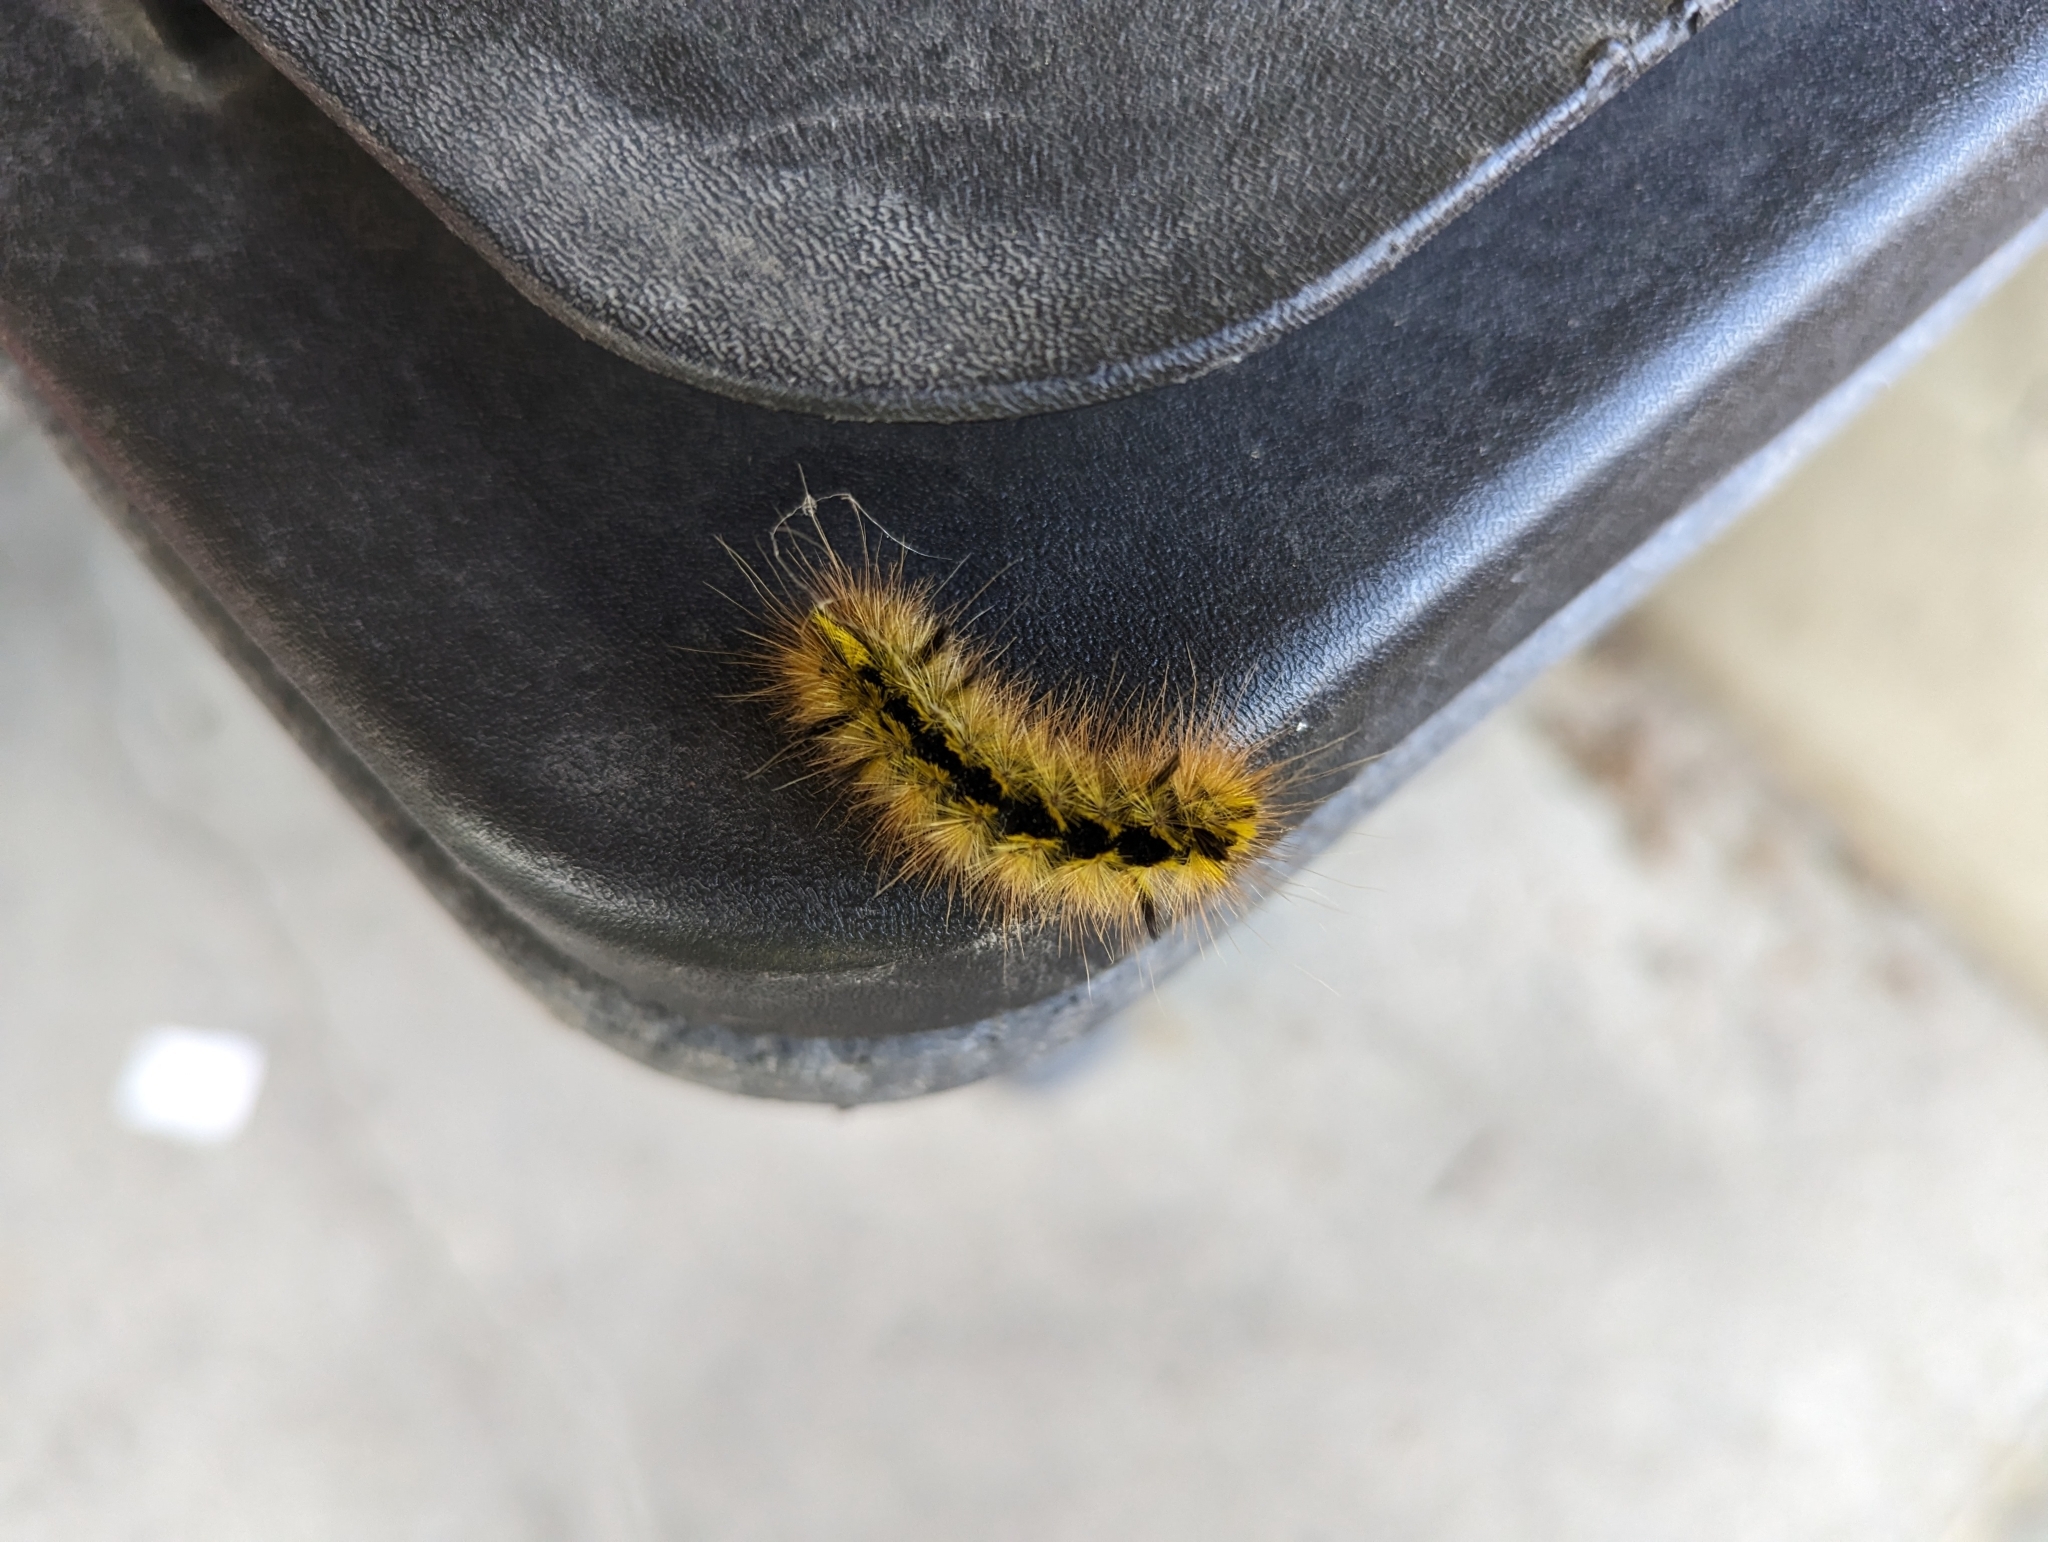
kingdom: Animalia
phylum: Arthropoda
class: Insecta
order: Lepidoptera
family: Erebidae
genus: Lophocampa
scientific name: Lophocampa argentata
